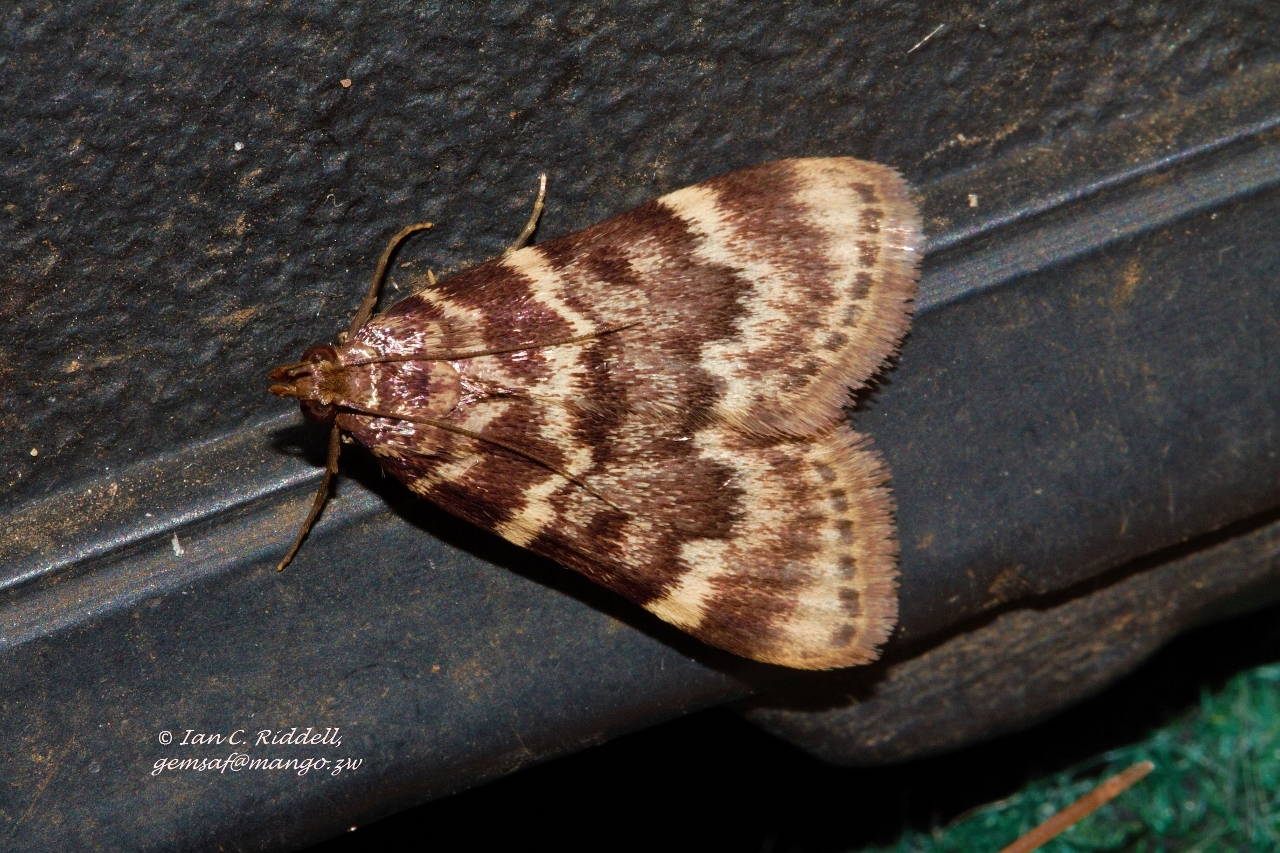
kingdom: Animalia
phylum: Arthropoda
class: Insecta
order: Lepidoptera
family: Pyralidae
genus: Aglossa
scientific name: Aglossa phaealis
